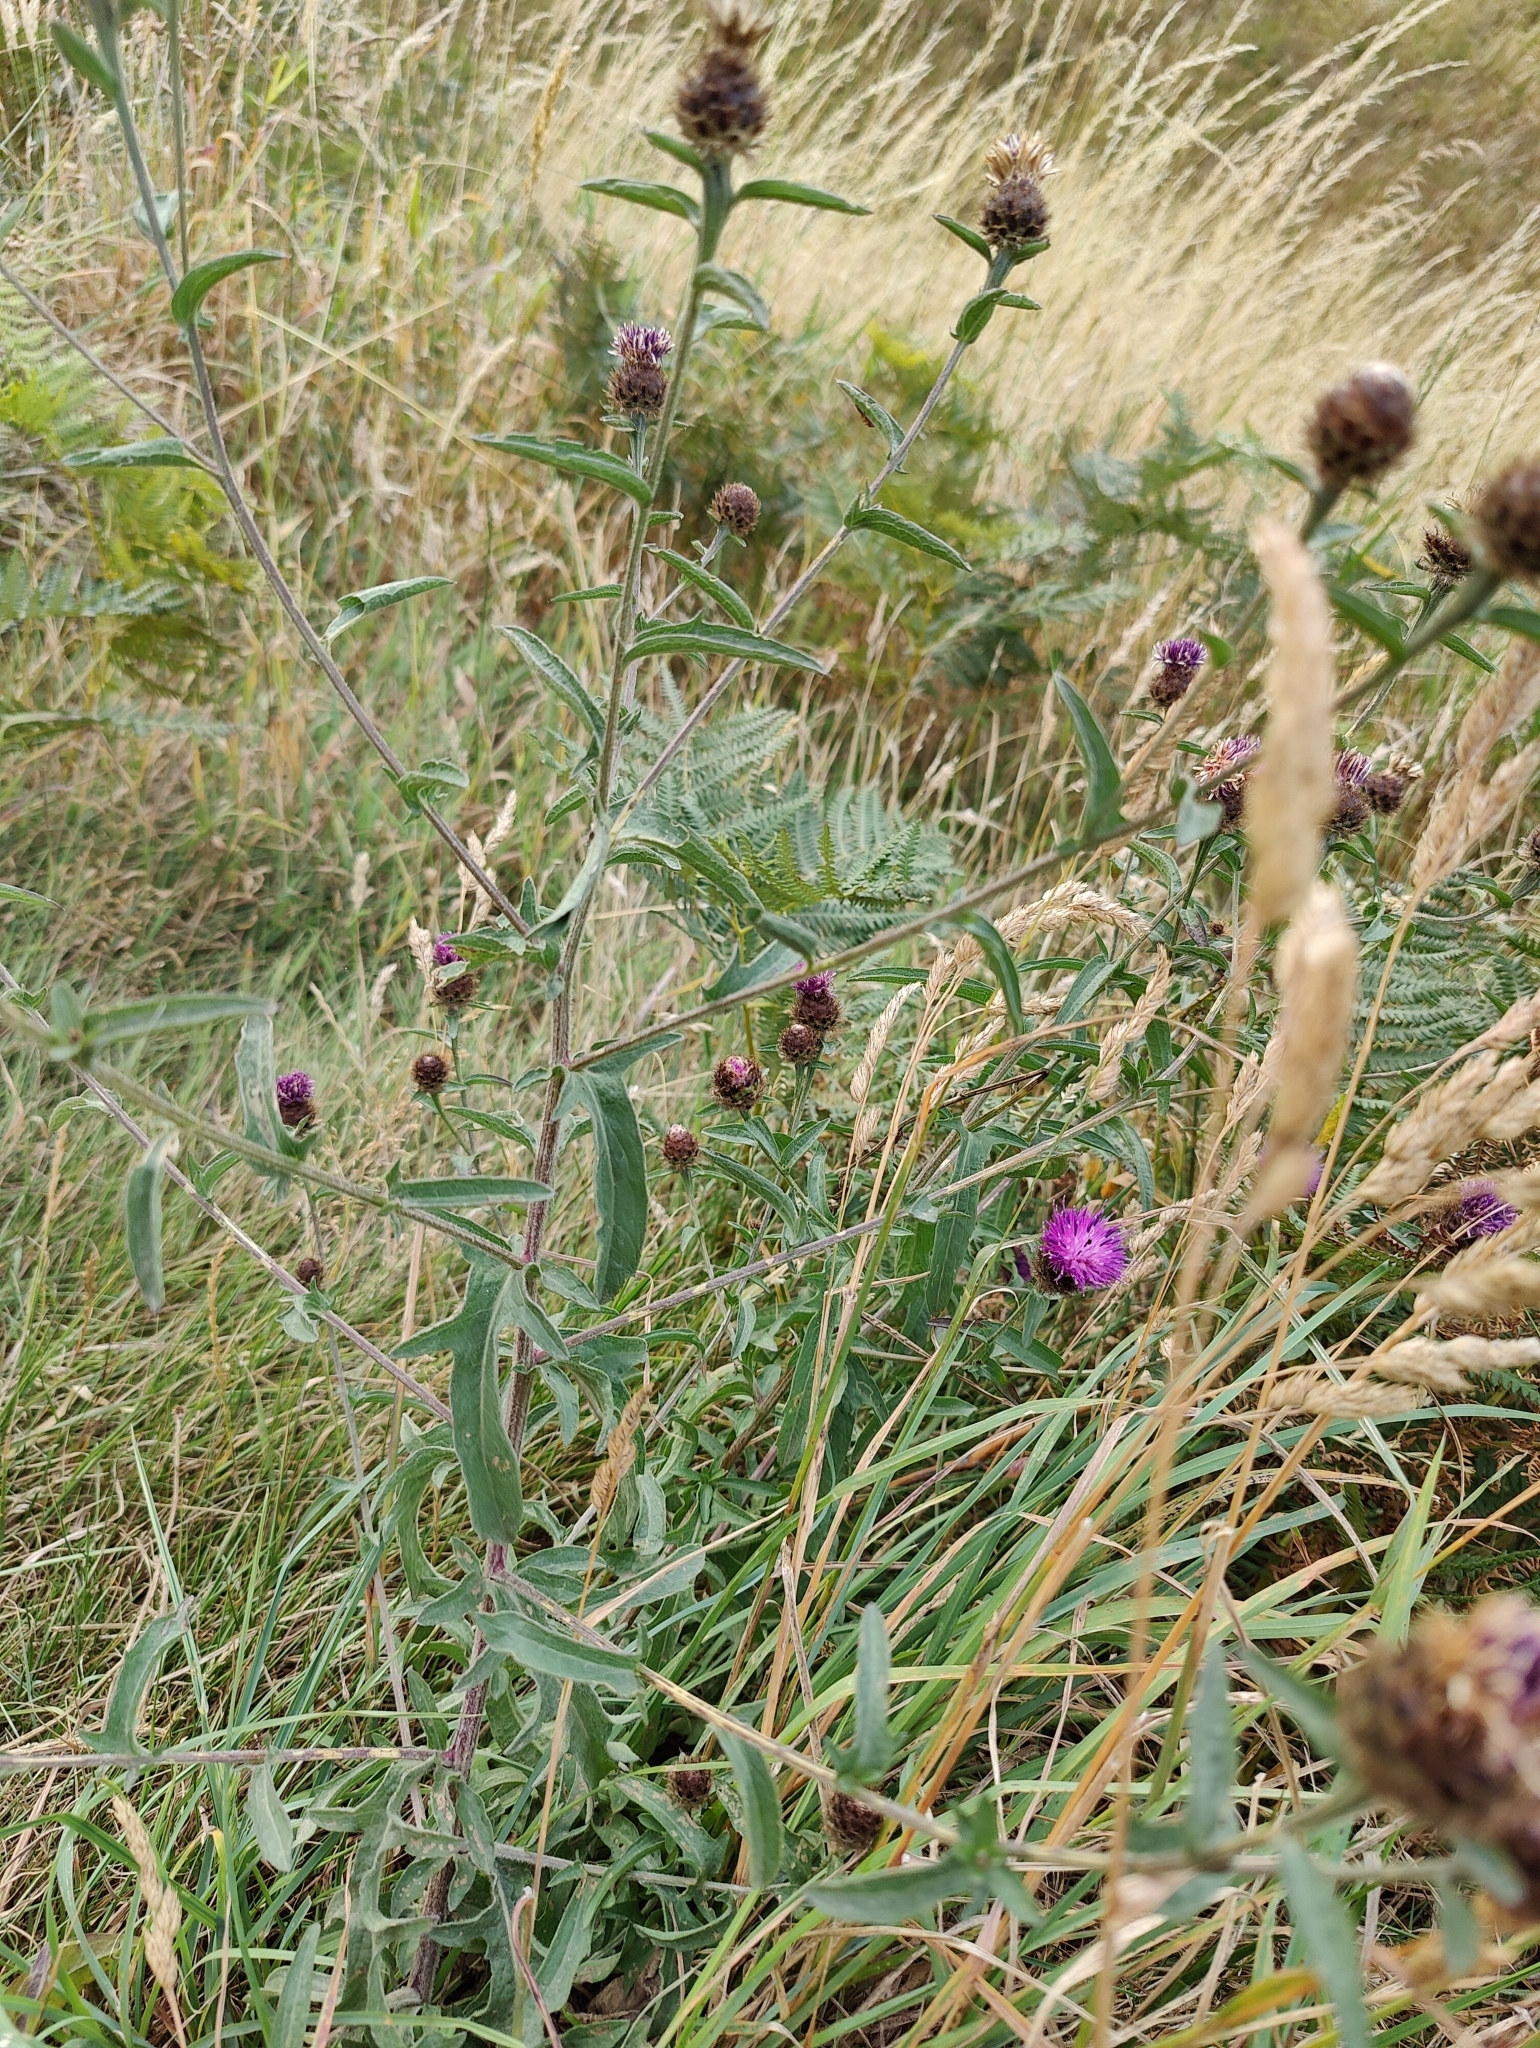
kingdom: Plantae
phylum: Tracheophyta
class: Magnoliopsida
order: Asterales
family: Asteraceae
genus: Centaurea
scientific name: Centaurea nigra
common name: Lesser knapweed
